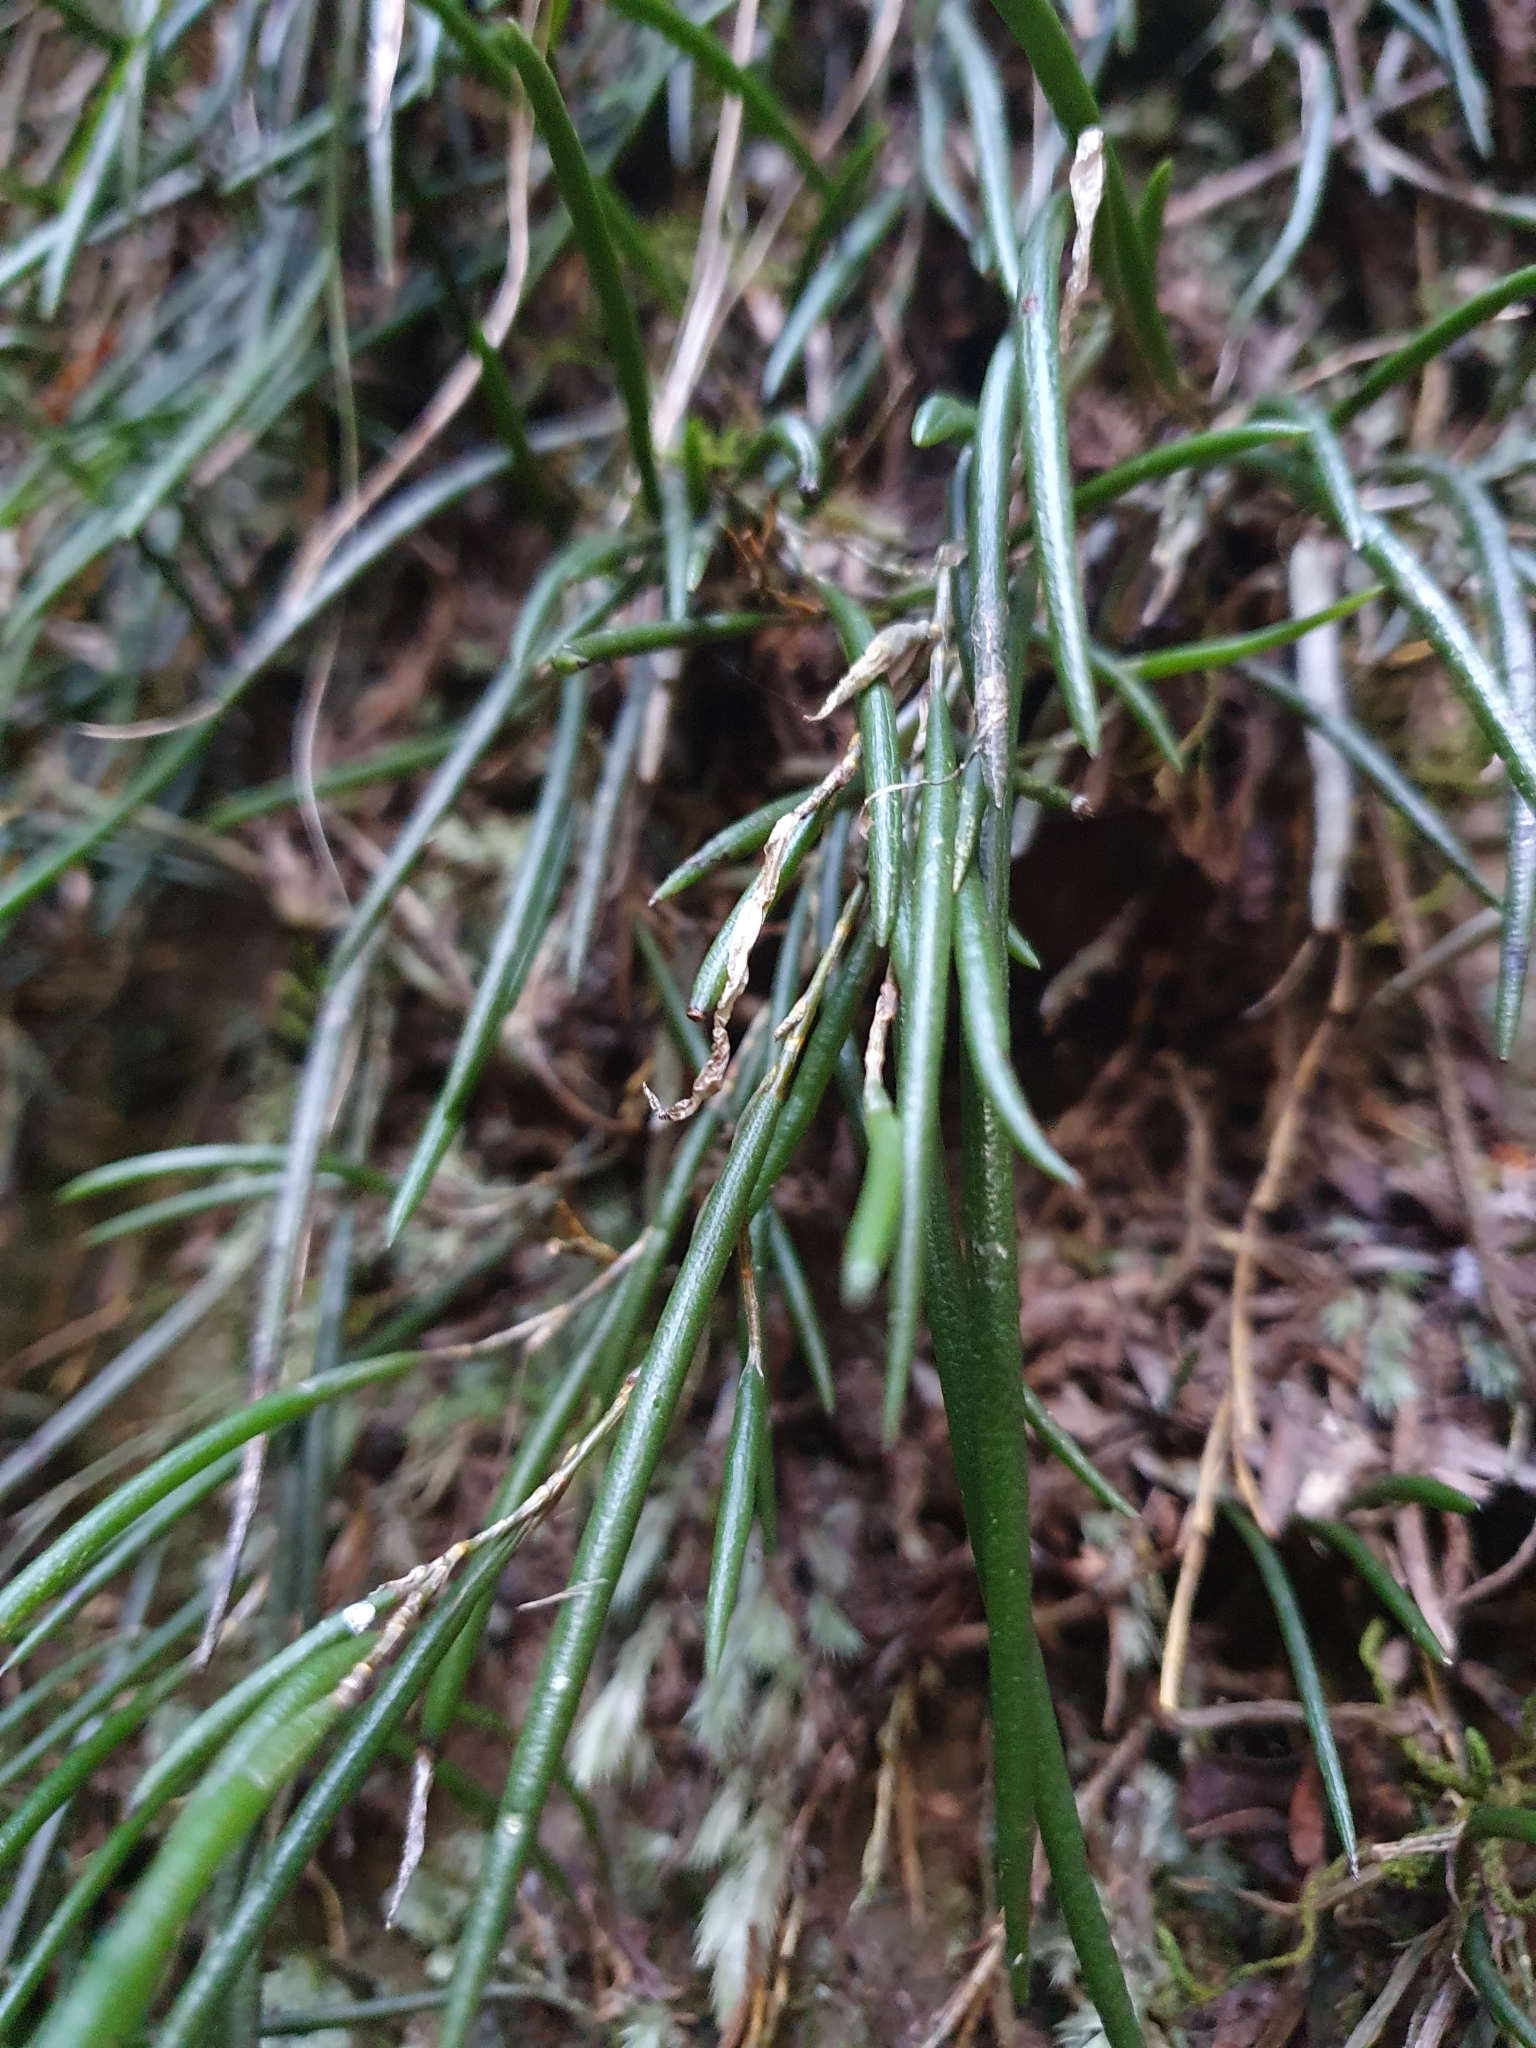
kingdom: Plantae
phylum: Tracheophyta
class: Liliopsida
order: Asparagales
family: Orchidaceae
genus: Dendrobium
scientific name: Dendrobium striolatum
